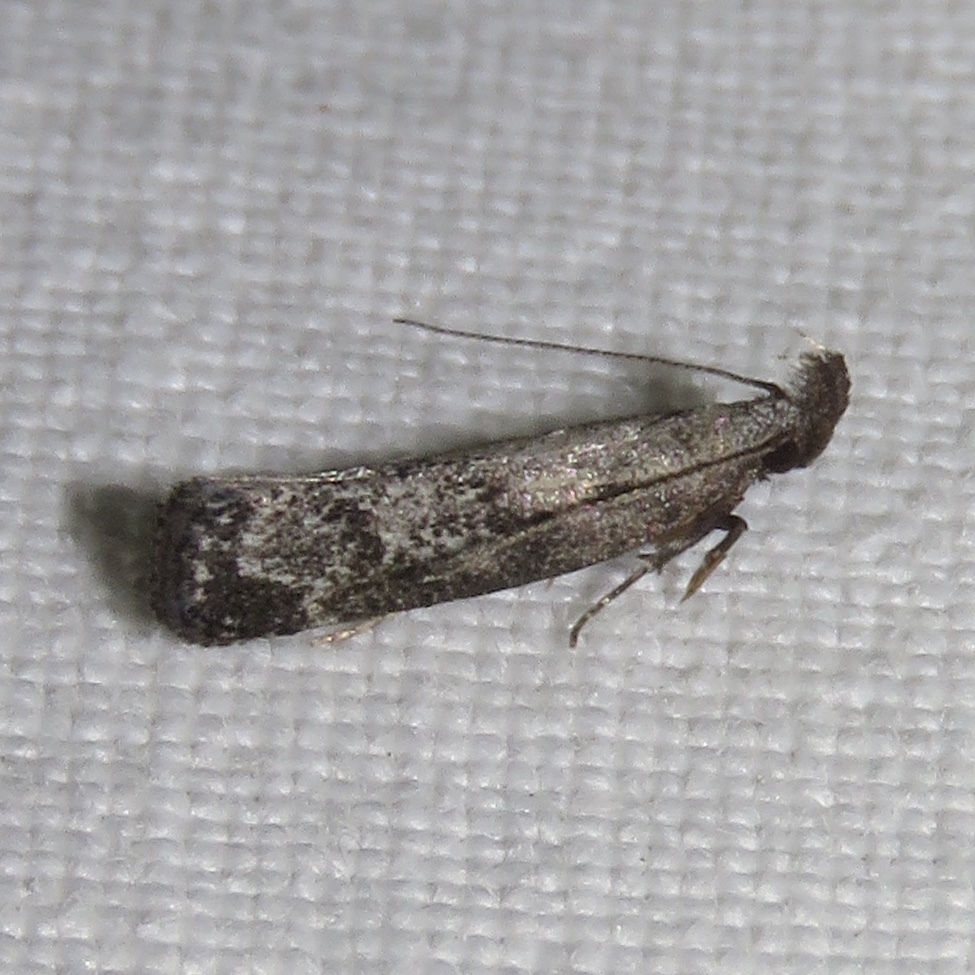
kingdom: Animalia
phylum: Arthropoda
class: Insecta
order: Lepidoptera
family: Gelechiidae
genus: Dichomeris
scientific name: Dichomeris inversella
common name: Inverse dichomeris moth
